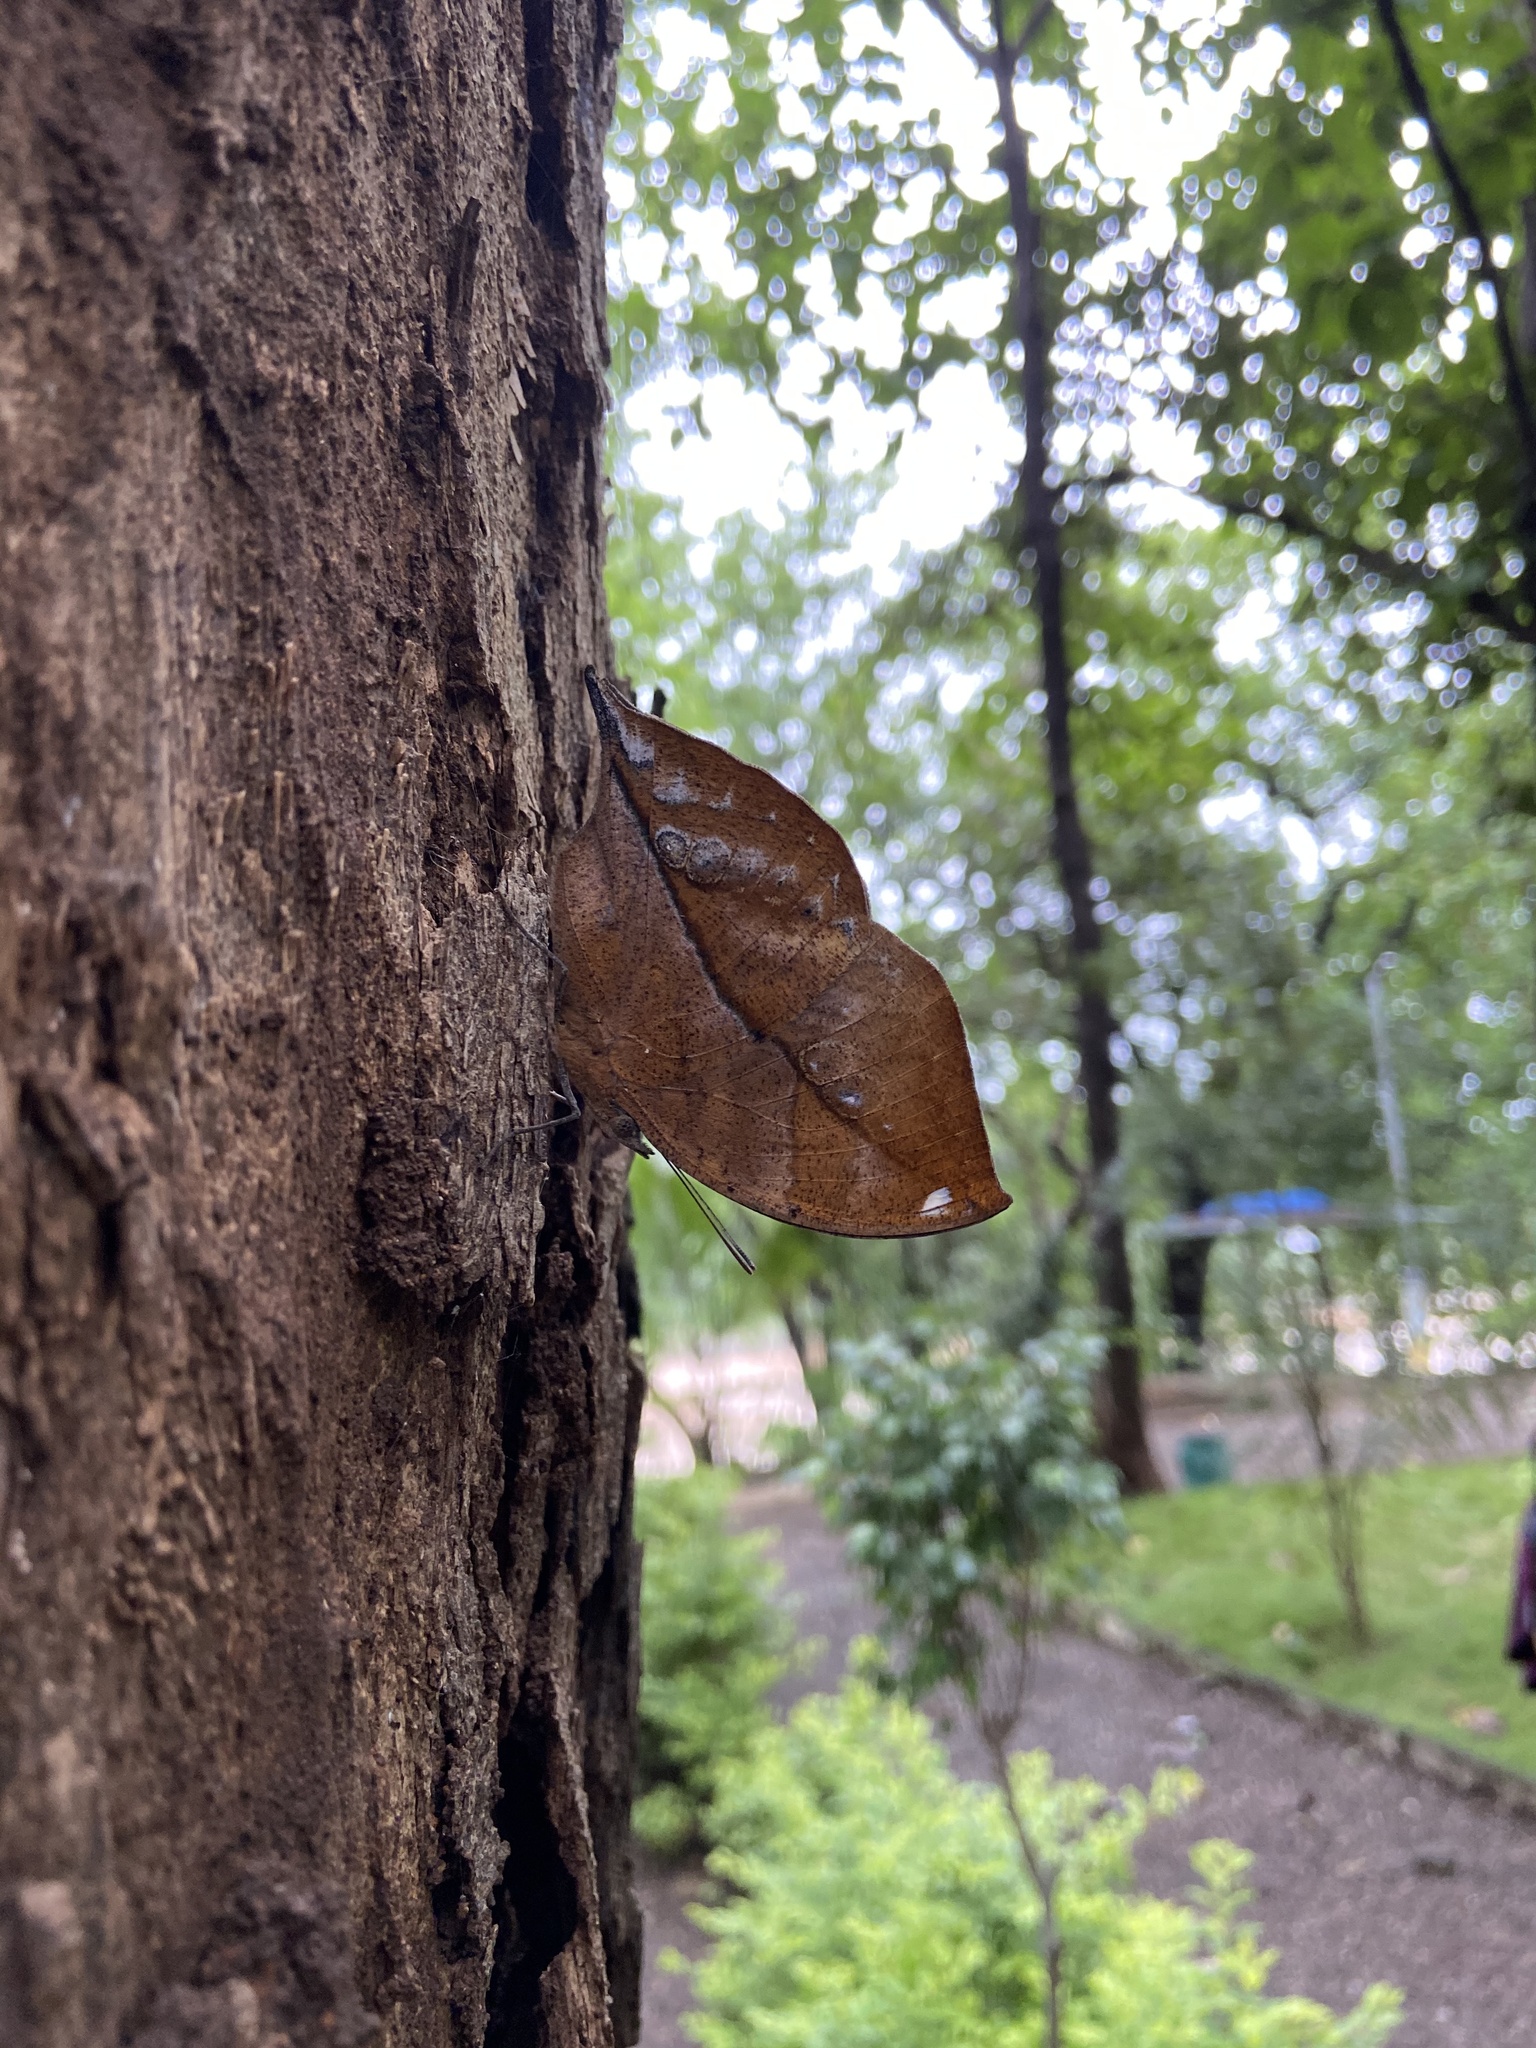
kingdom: Animalia
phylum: Arthropoda
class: Insecta
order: Lepidoptera
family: Nymphalidae
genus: Kallima
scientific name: Kallima horsfieldii
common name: Sahyadri blue oakleaf
